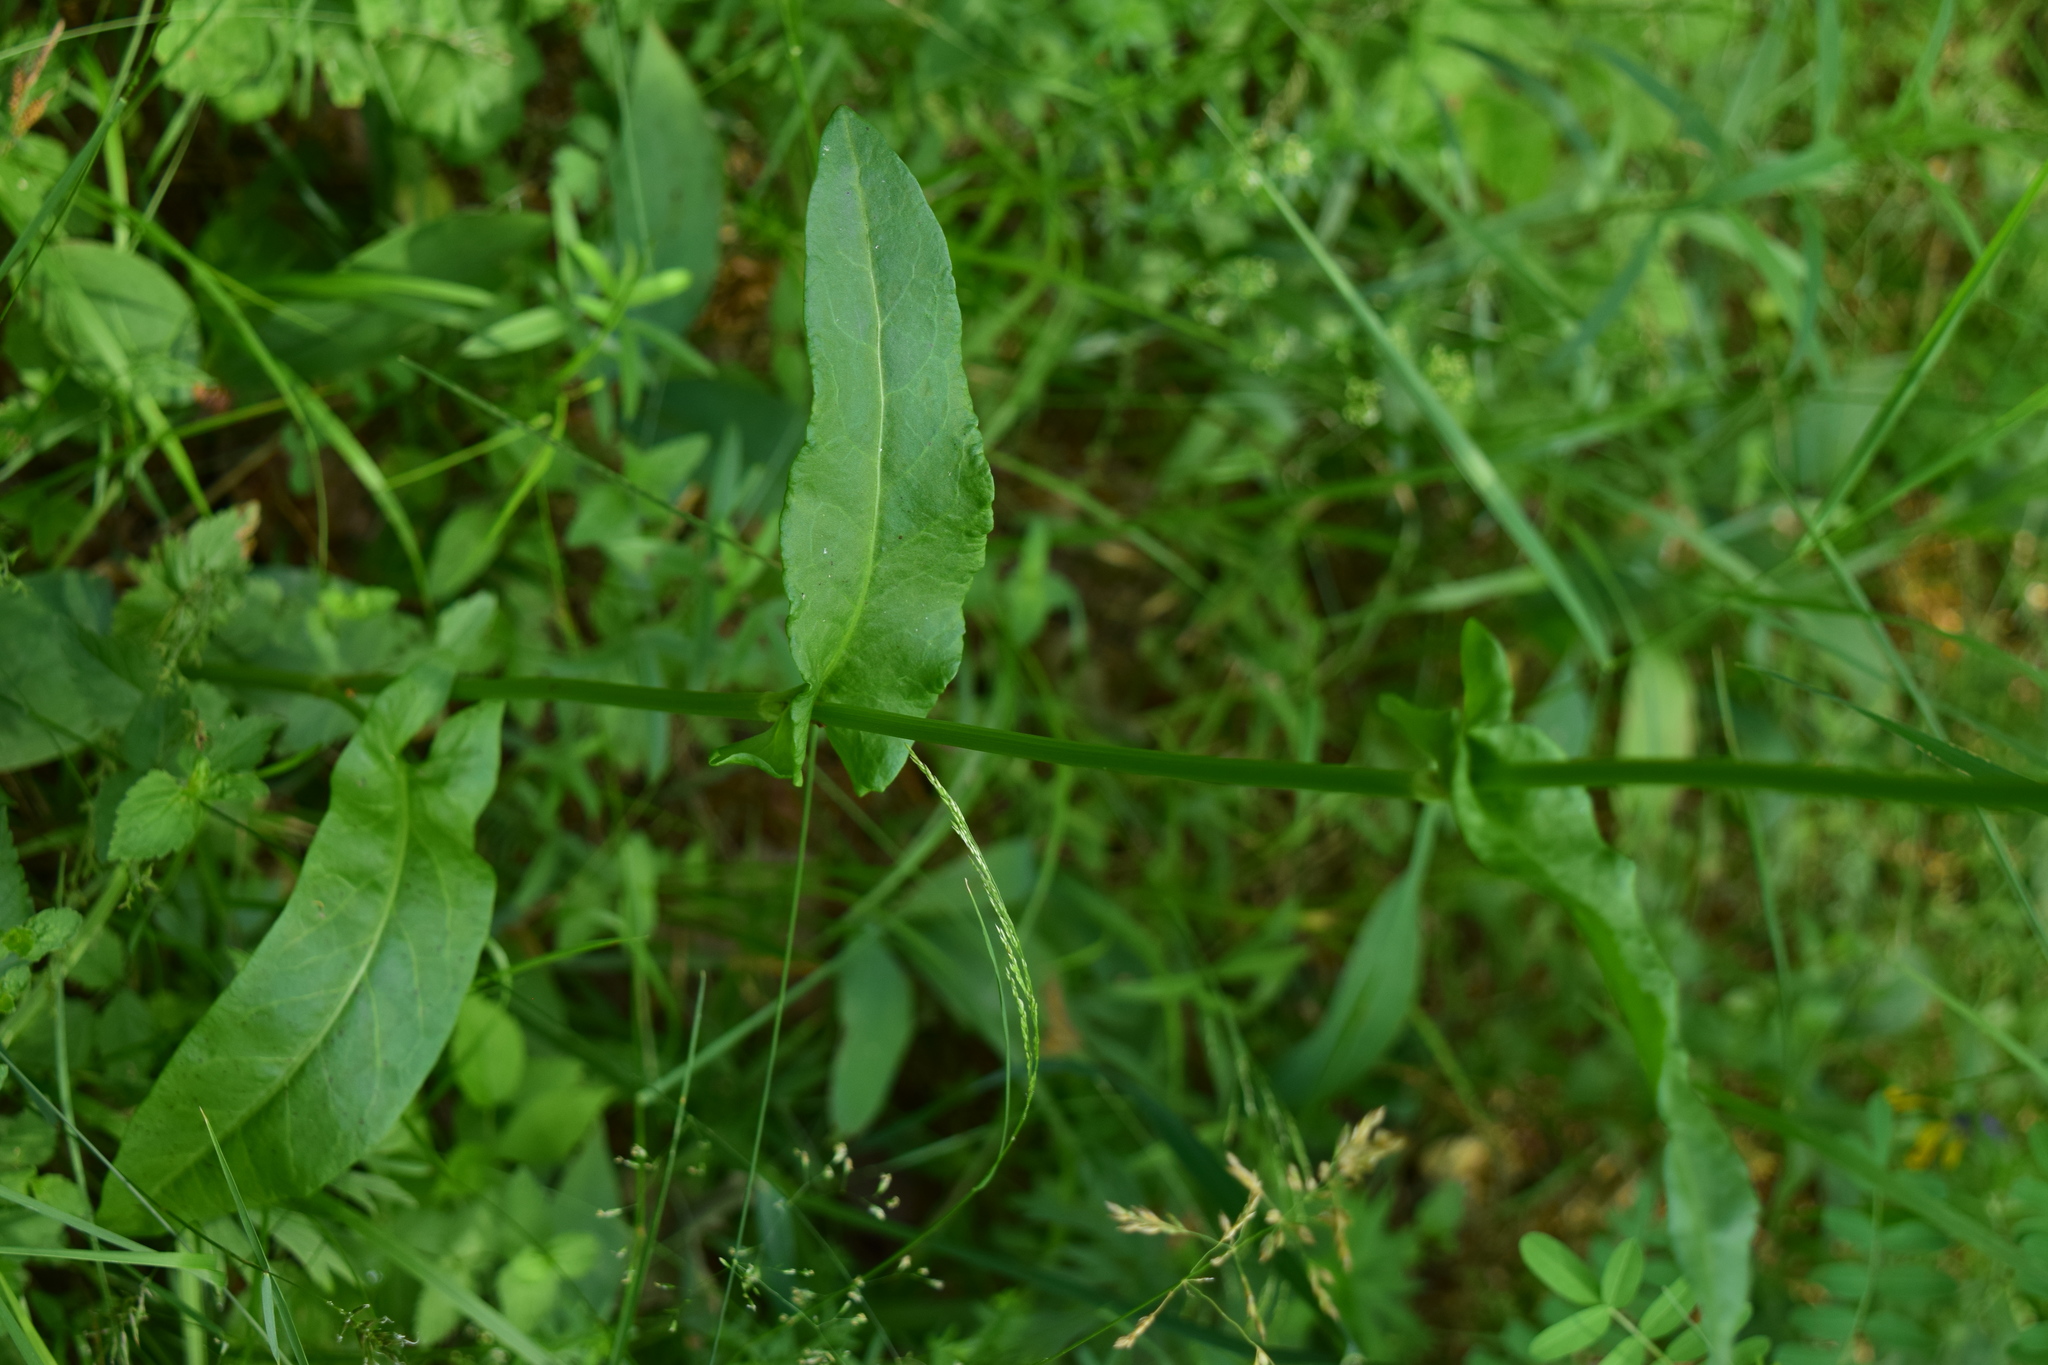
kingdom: Plantae
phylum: Tracheophyta
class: Magnoliopsida
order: Caryophyllales
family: Polygonaceae
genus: Rumex
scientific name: Rumex thyrsiflorus
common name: Garden sorrel
